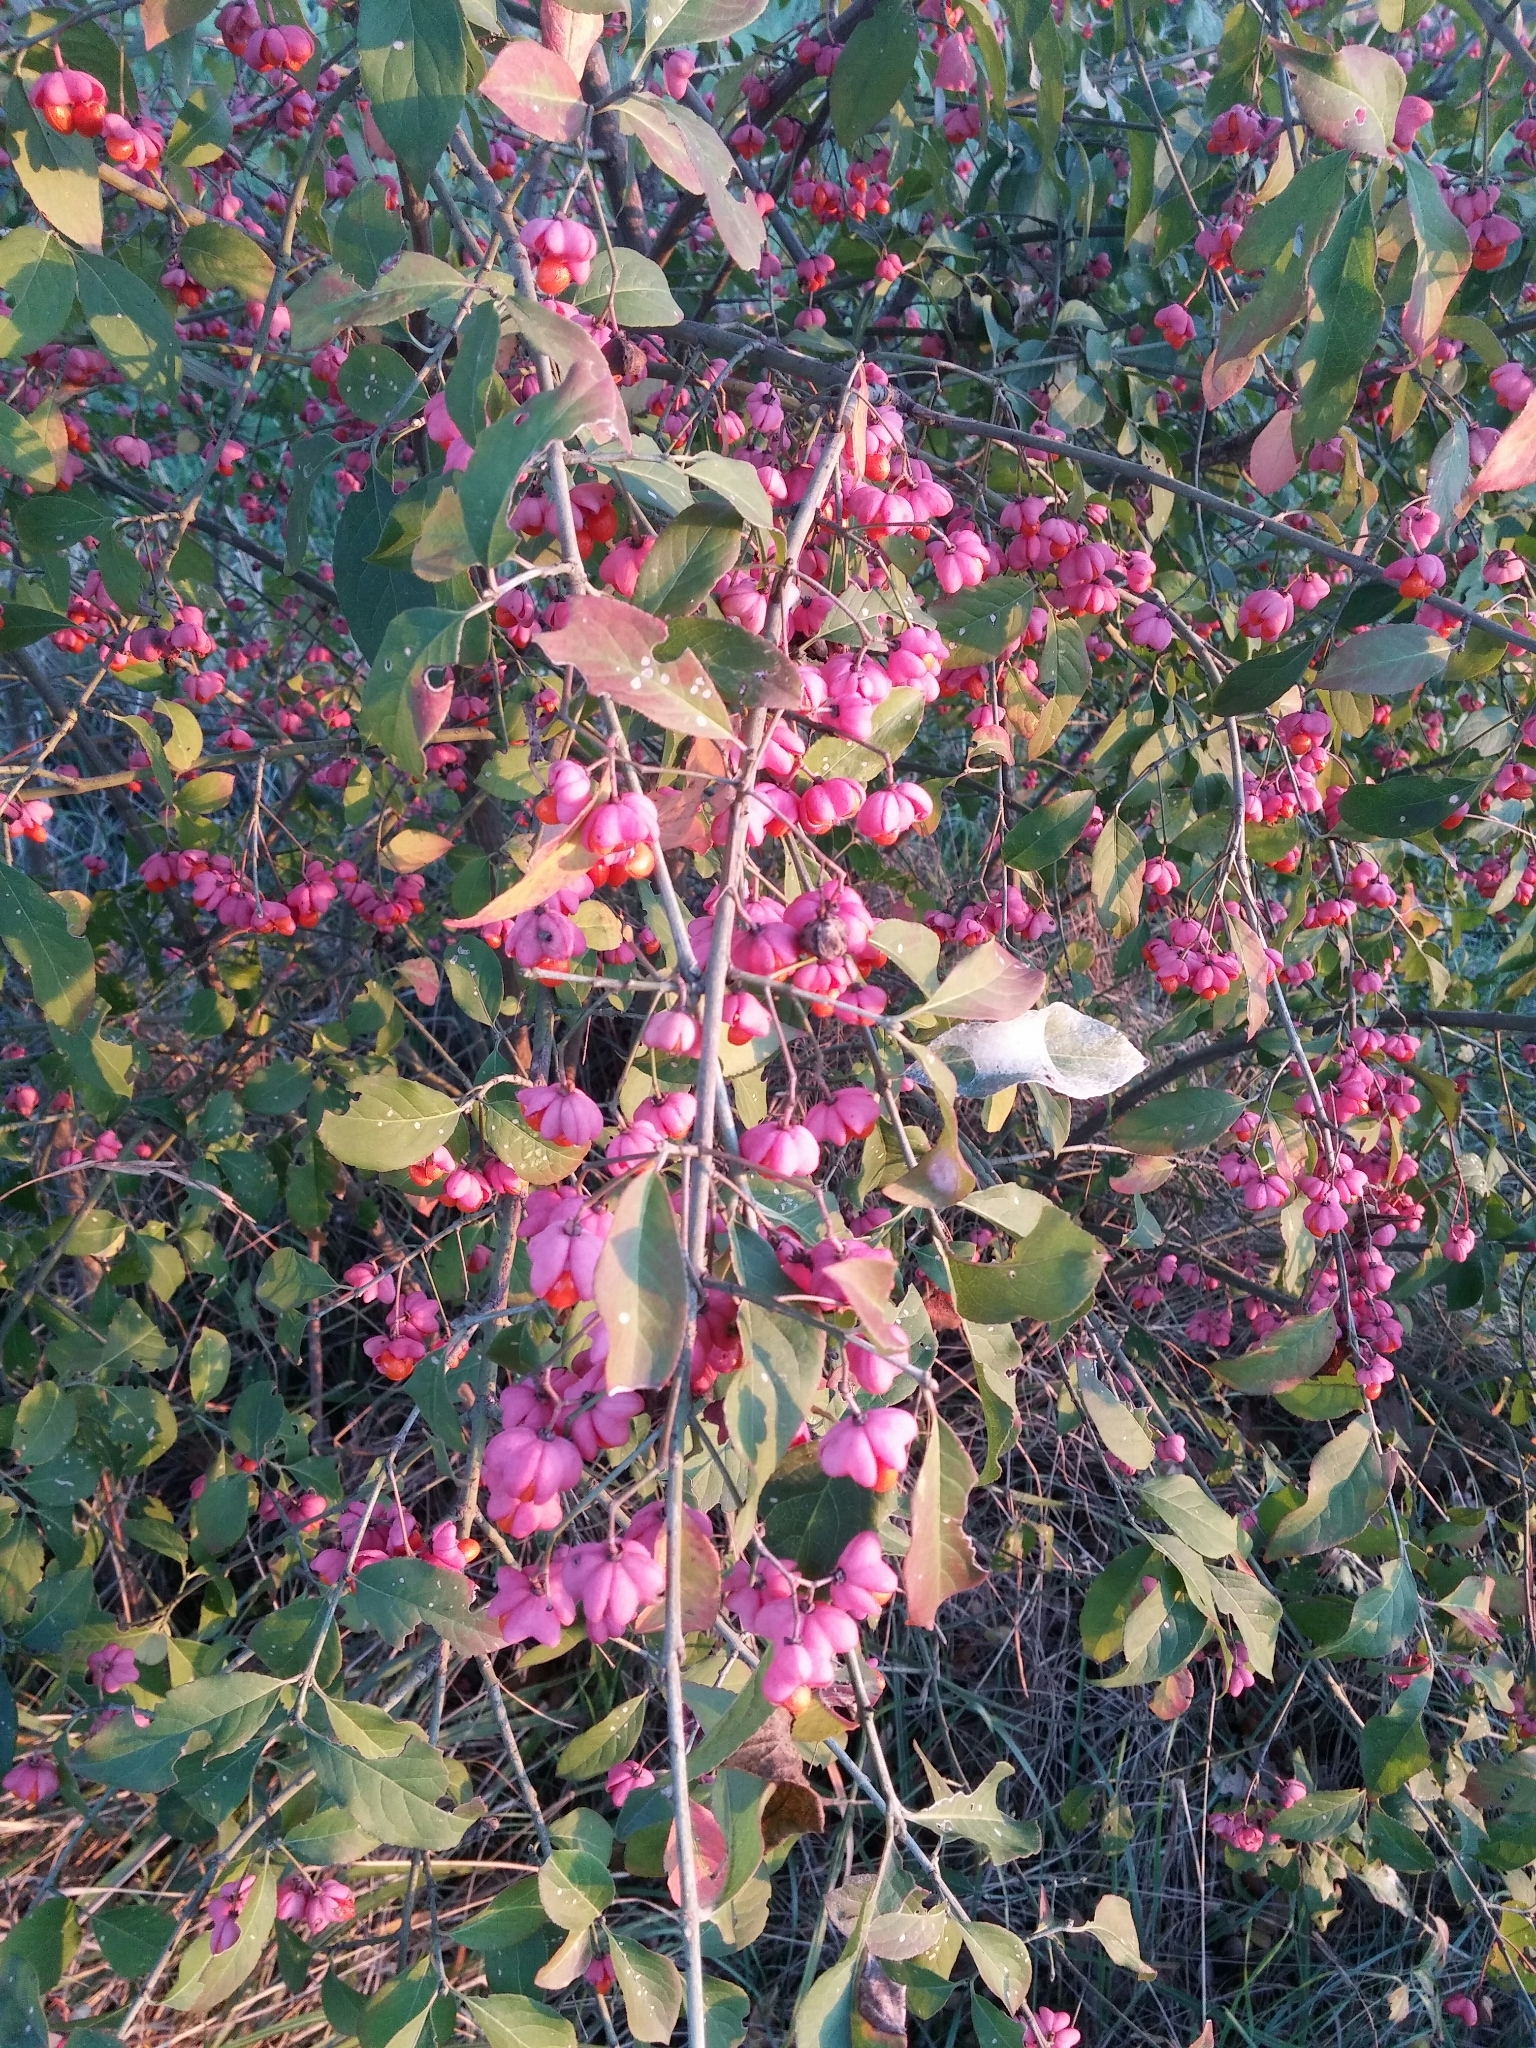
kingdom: Plantae
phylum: Tracheophyta
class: Magnoliopsida
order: Celastrales
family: Celastraceae
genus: Euonymus
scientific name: Euonymus europaeus
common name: Spindle
